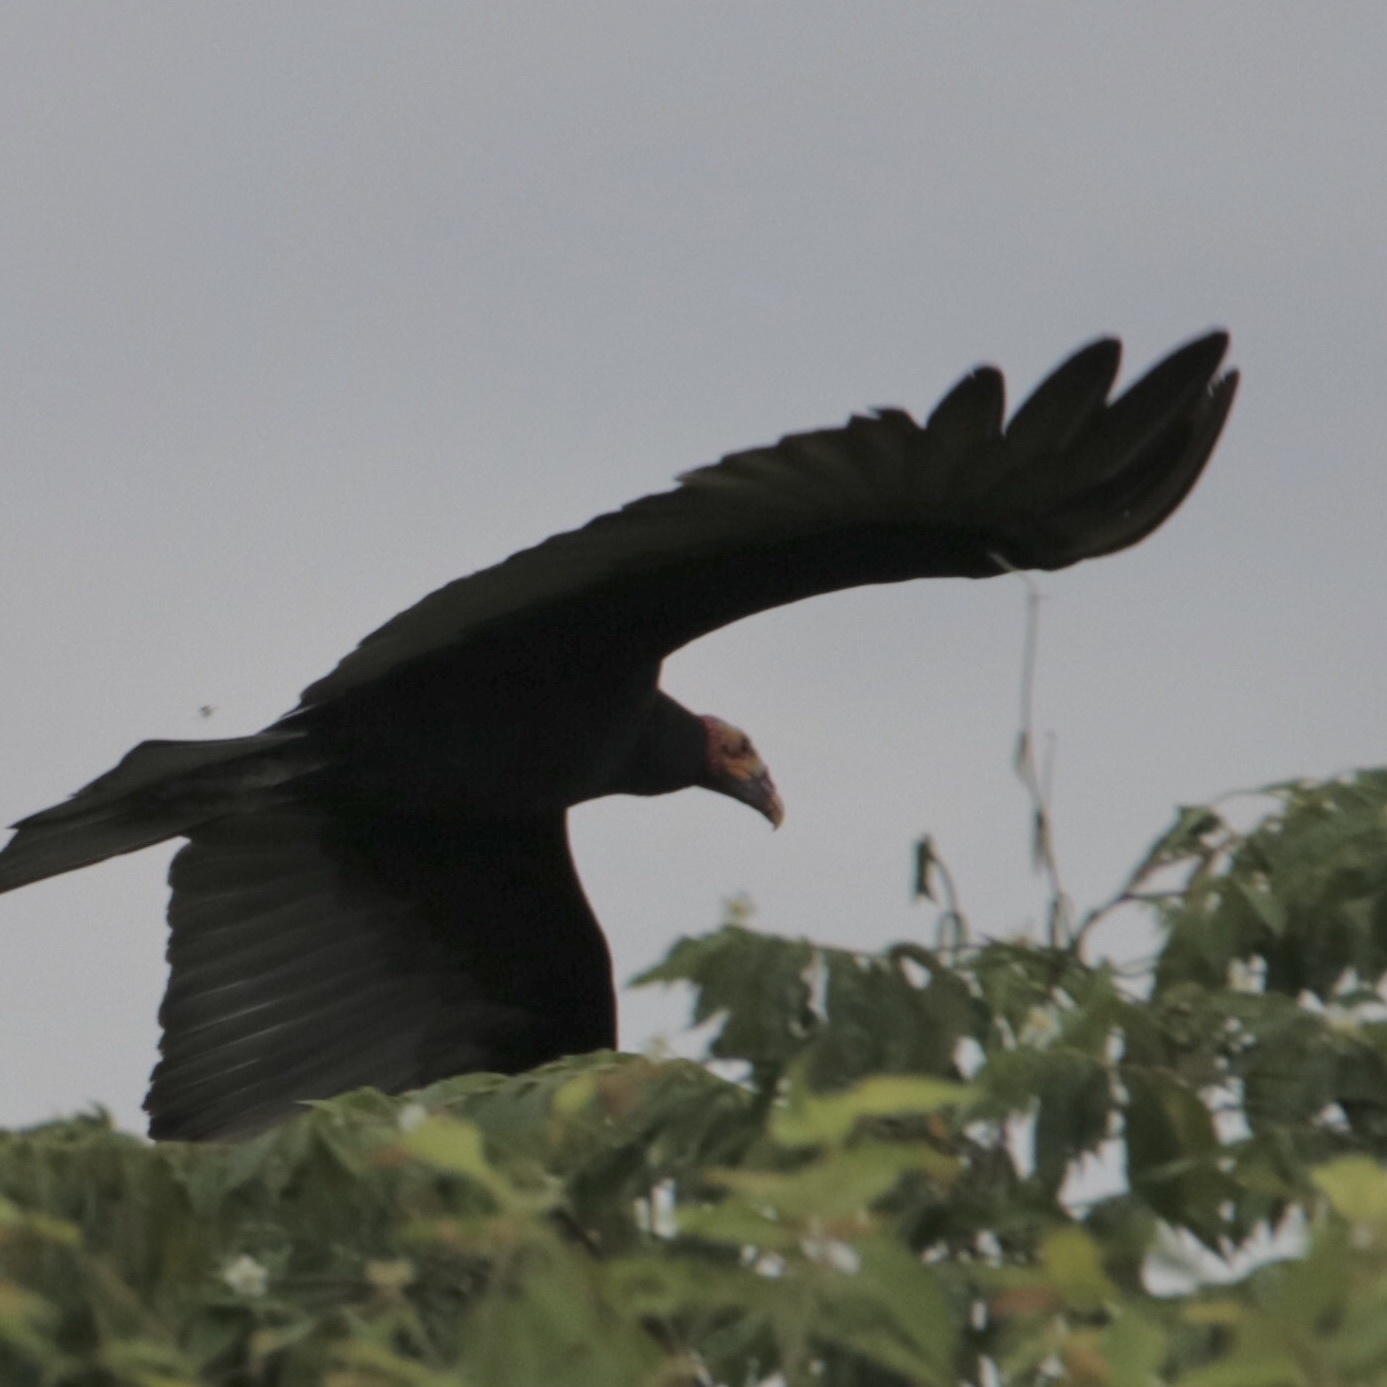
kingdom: Animalia
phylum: Chordata
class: Aves
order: Accipitriformes
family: Cathartidae
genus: Cathartes
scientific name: Cathartes burrovianus
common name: Lesser yellow-headed vulture
